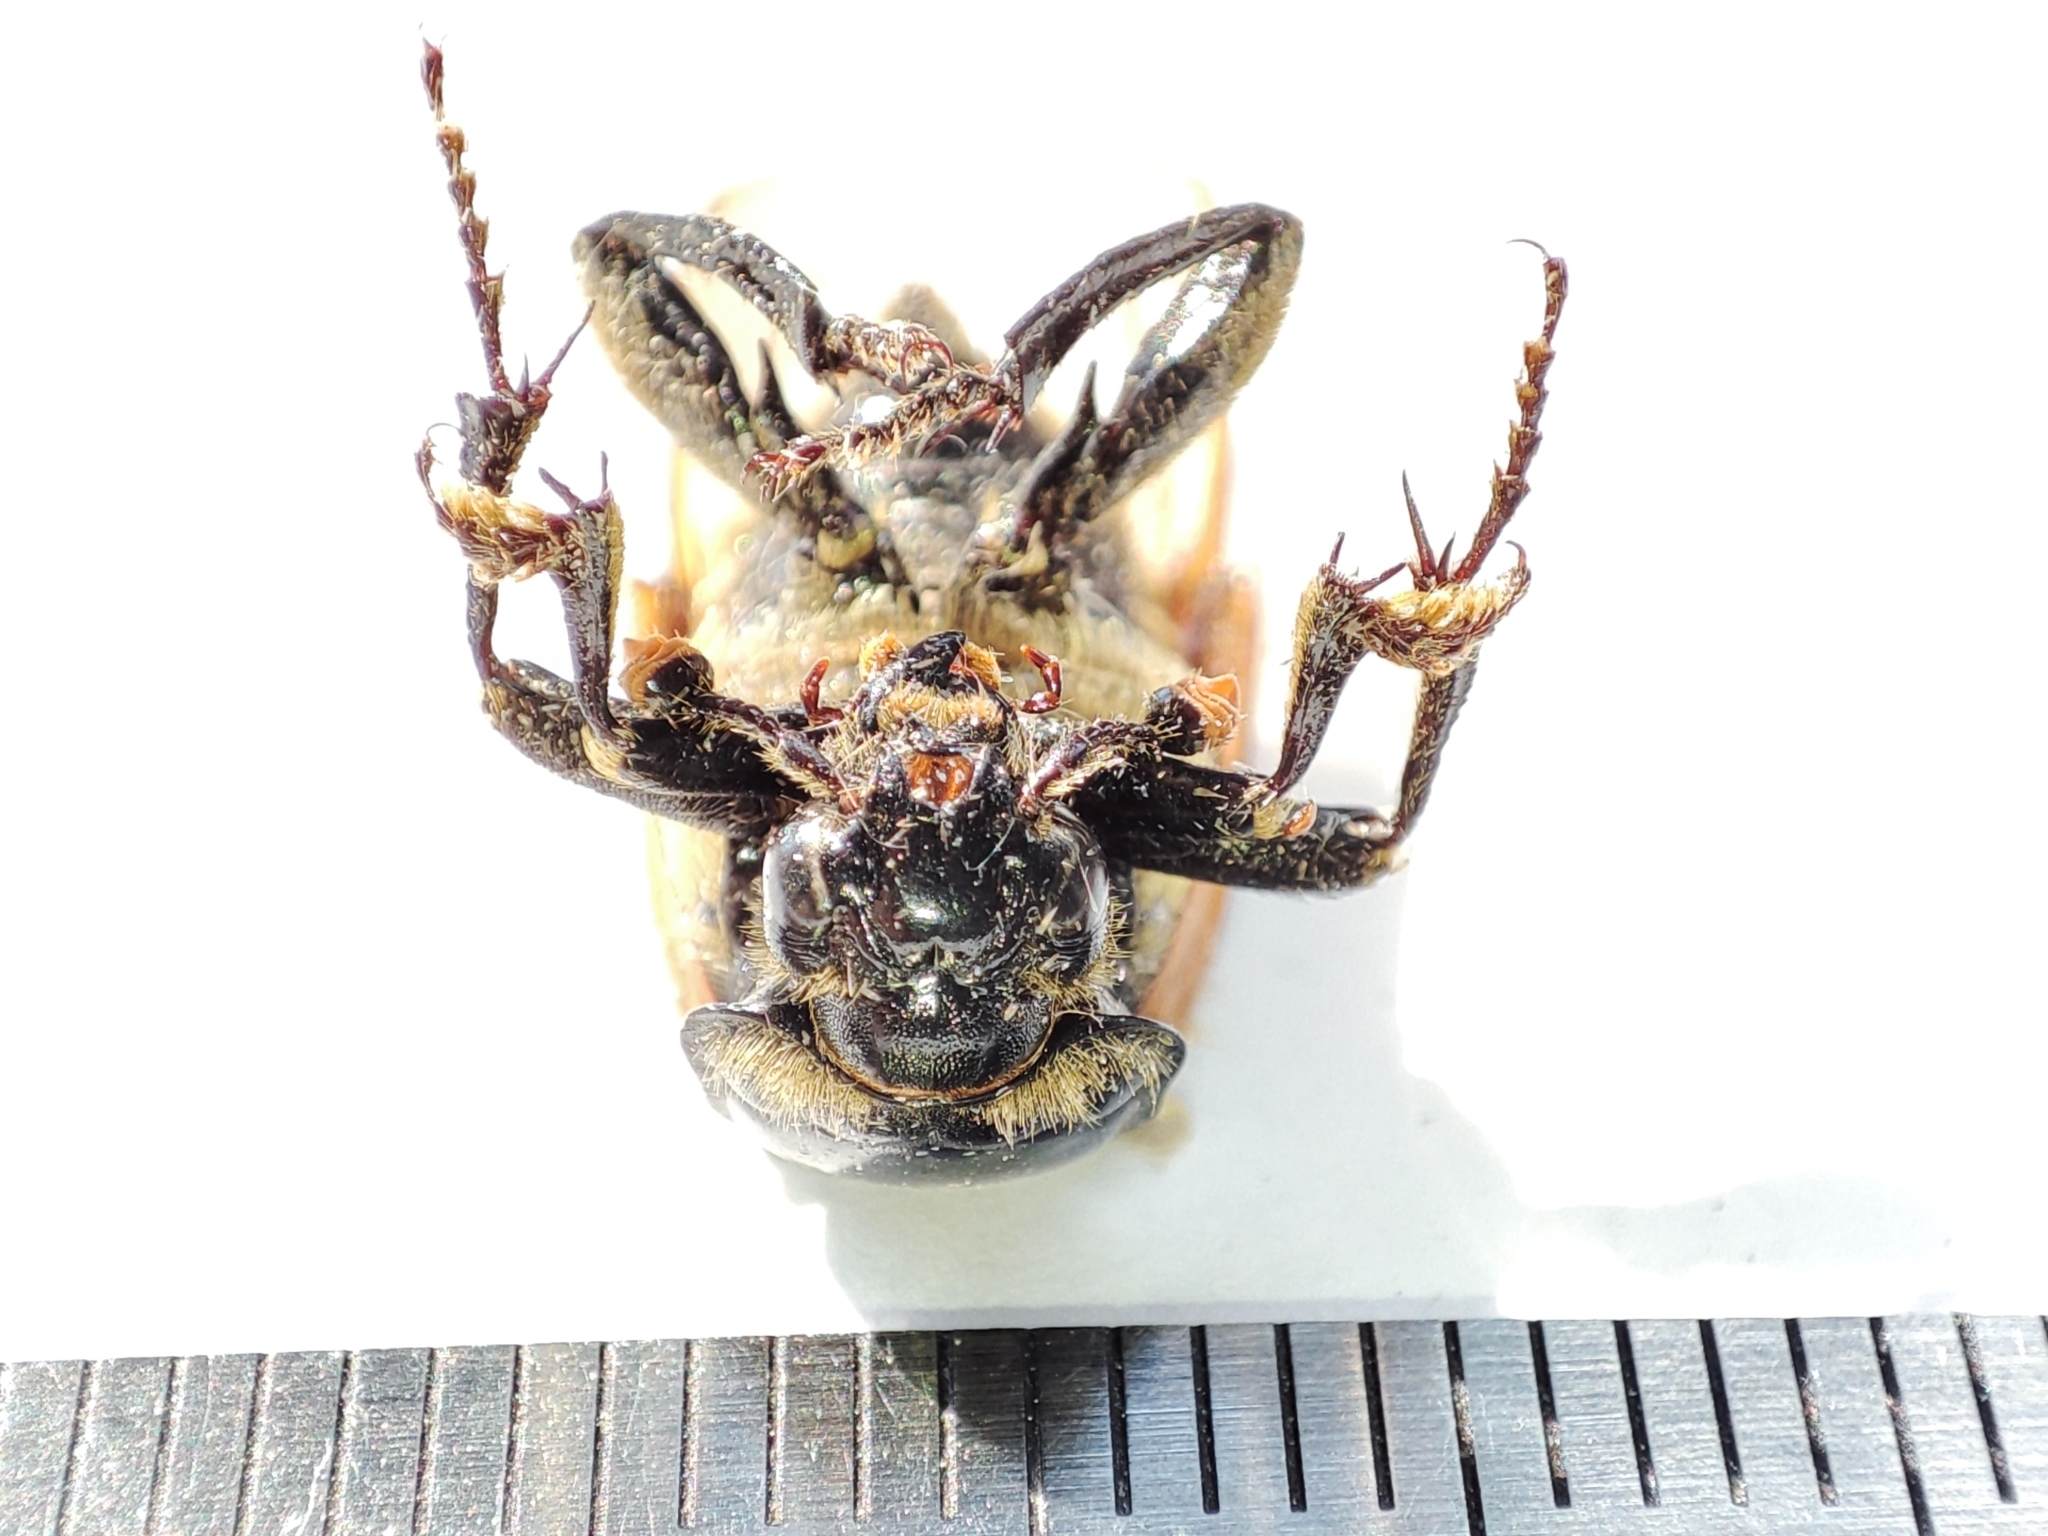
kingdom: Animalia
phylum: Arthropoda
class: Insecta
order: Coleoptera
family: Staphylinidae
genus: Nicrophorus
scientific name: Nicrophorus vespillo
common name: Common burying beetle
